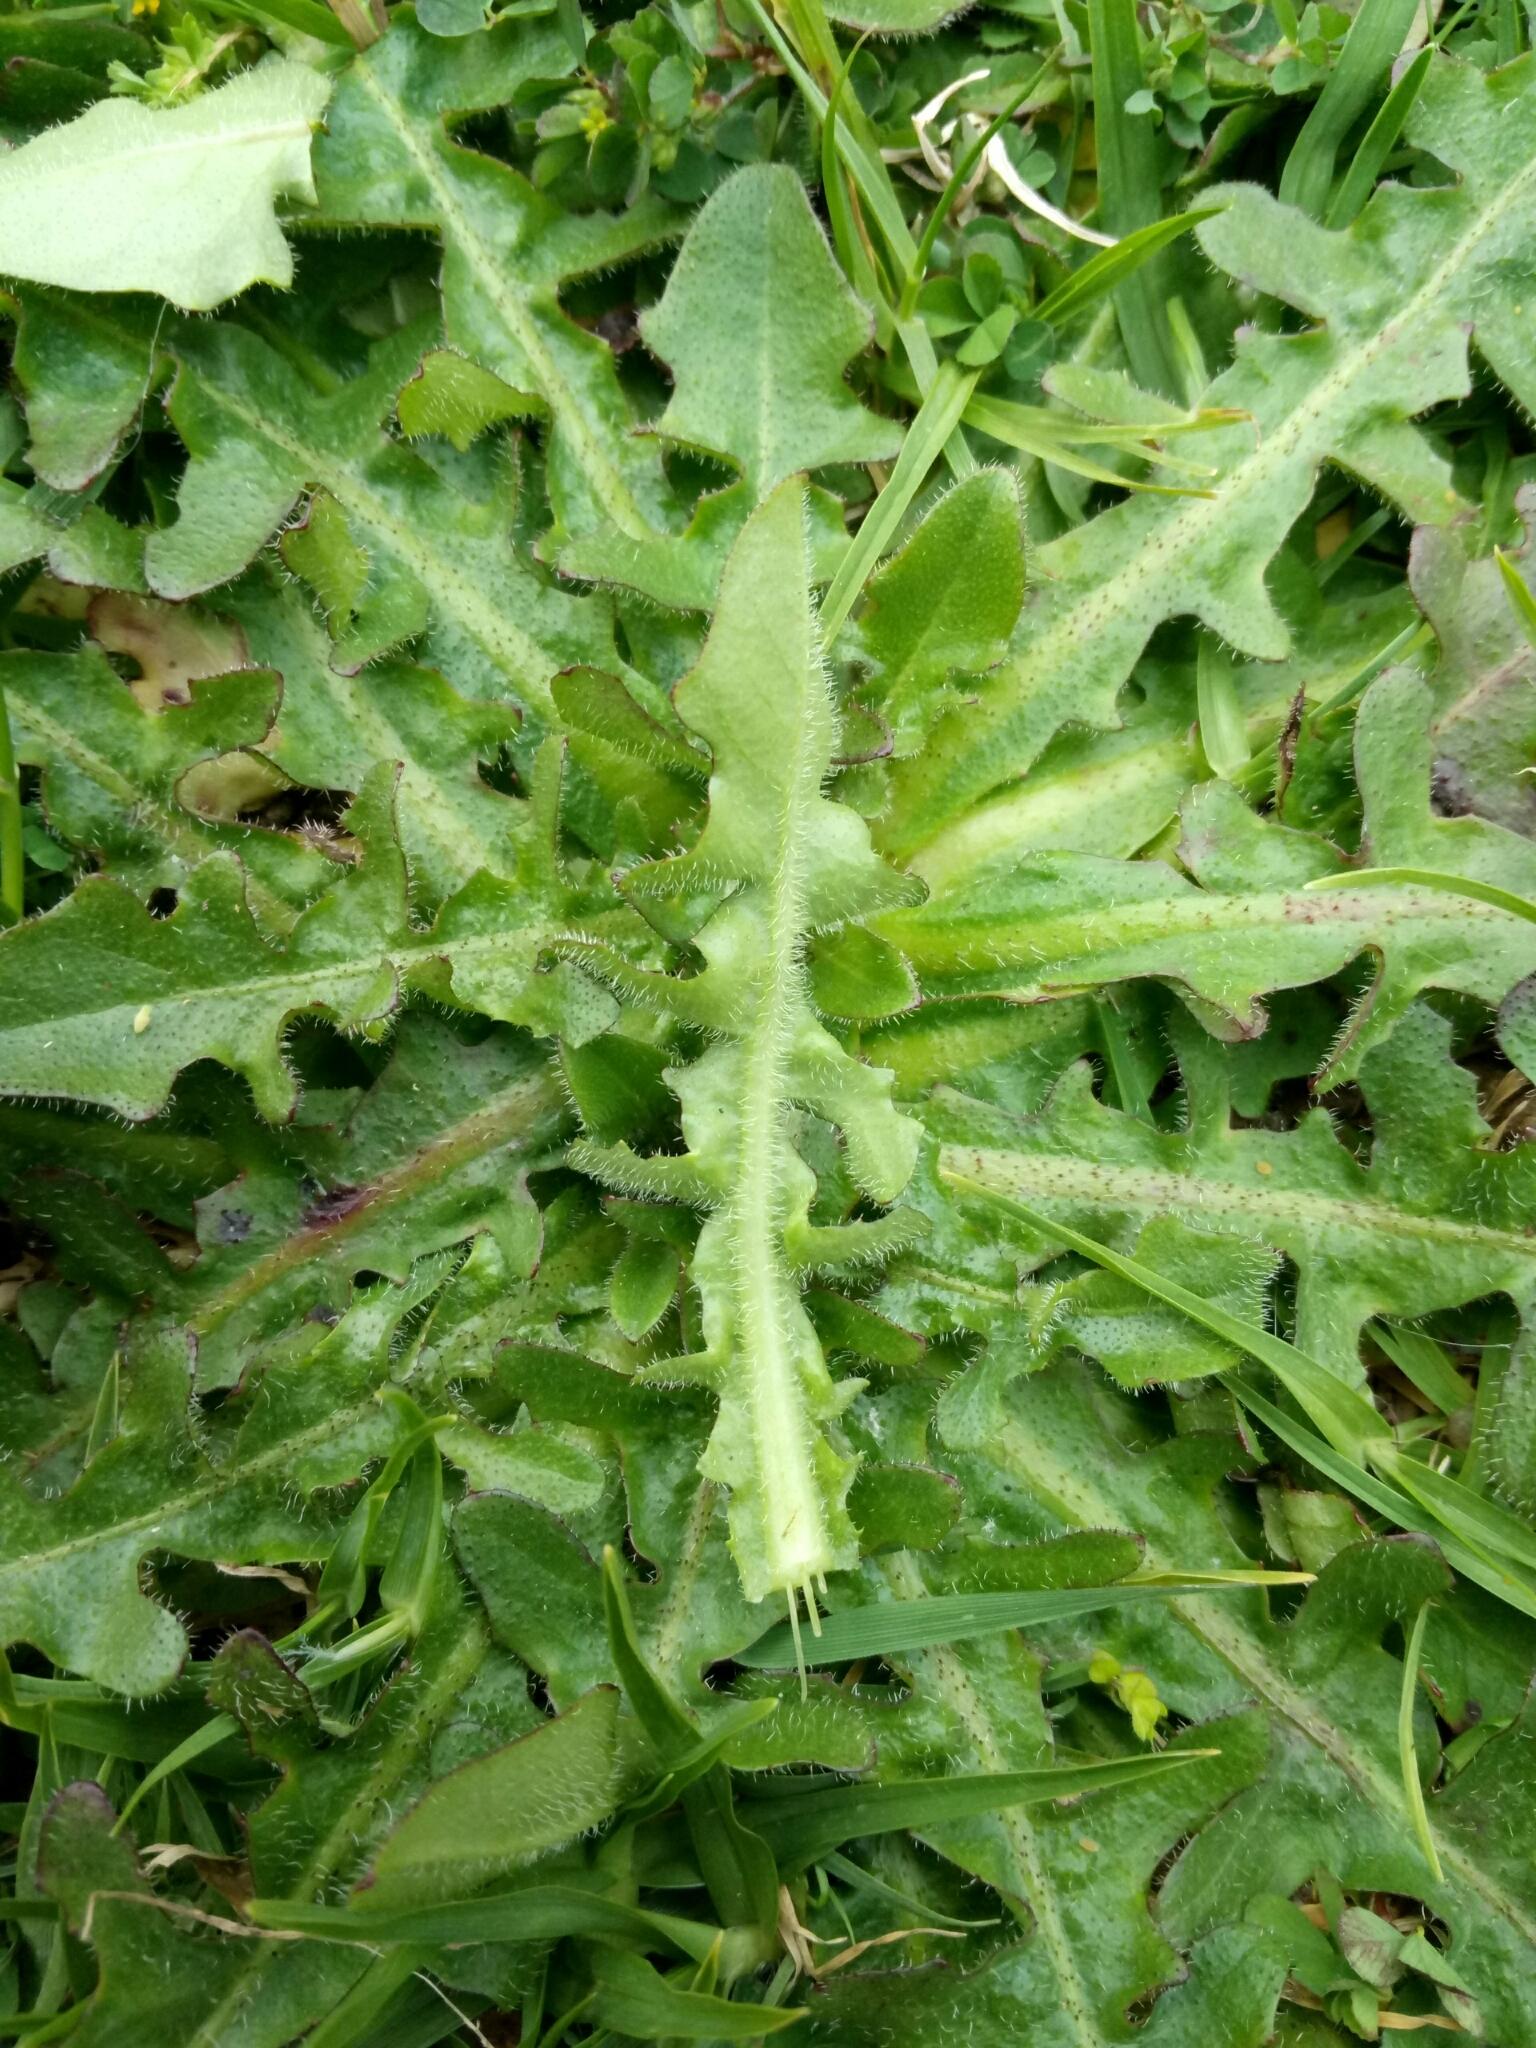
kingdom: Plantae
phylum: Tracheophyta
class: Magnoliopsida
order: Asterales
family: Asteraceae
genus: Hypochaeris
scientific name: Hypochaeris radicata
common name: Flatweed
